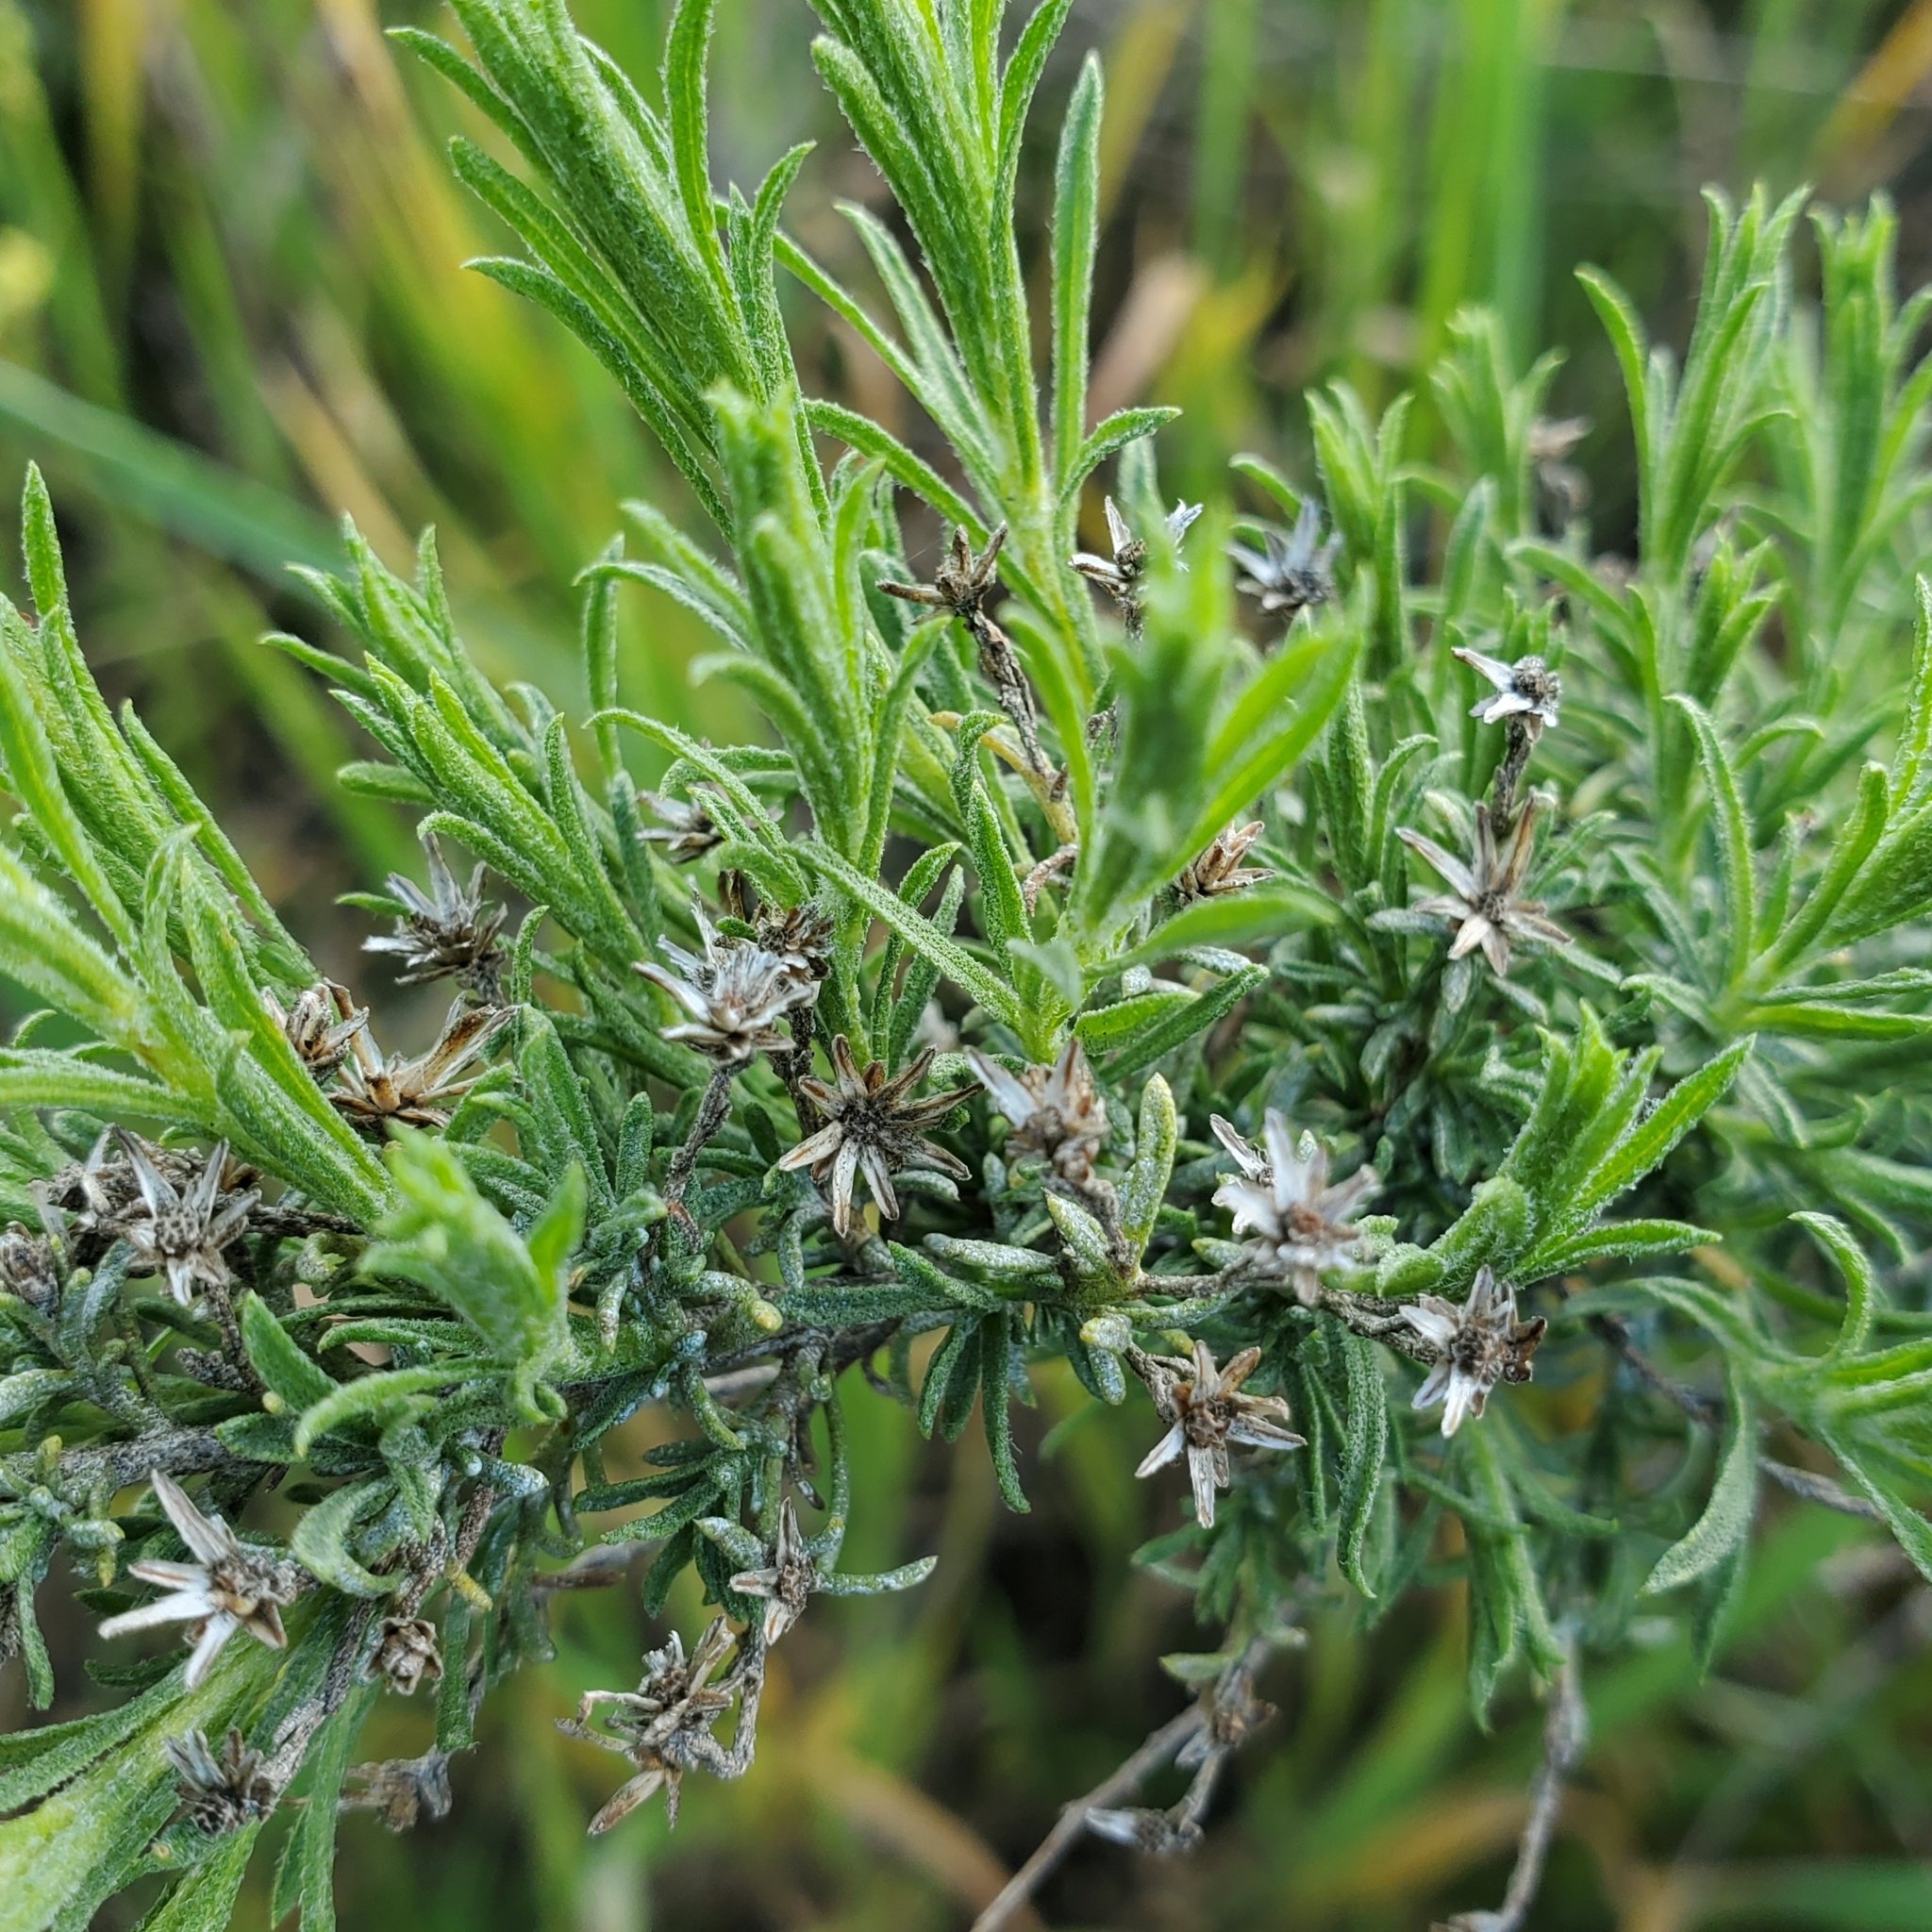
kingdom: Plantae
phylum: Tracheophyta
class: Magnoliopsida
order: Asterales
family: Asteraceae
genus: Ericameria
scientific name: Ericameria palmeri
